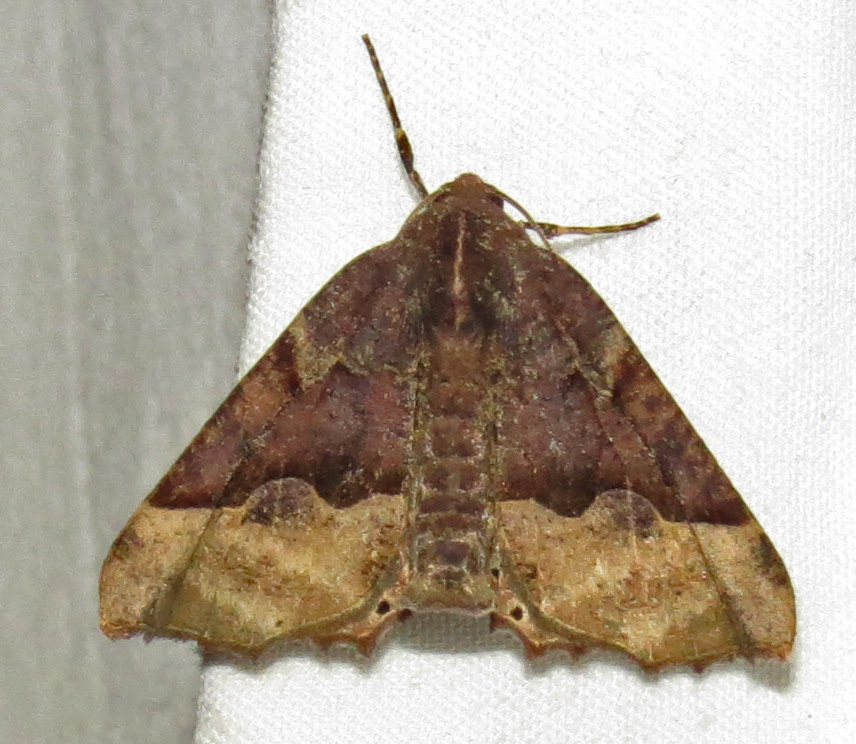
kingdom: Animalia
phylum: Arthropoda
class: Insecta
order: Lepidoptera
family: Geometridae
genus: Pero
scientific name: Pero ancetaria
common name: Hübner's pero
